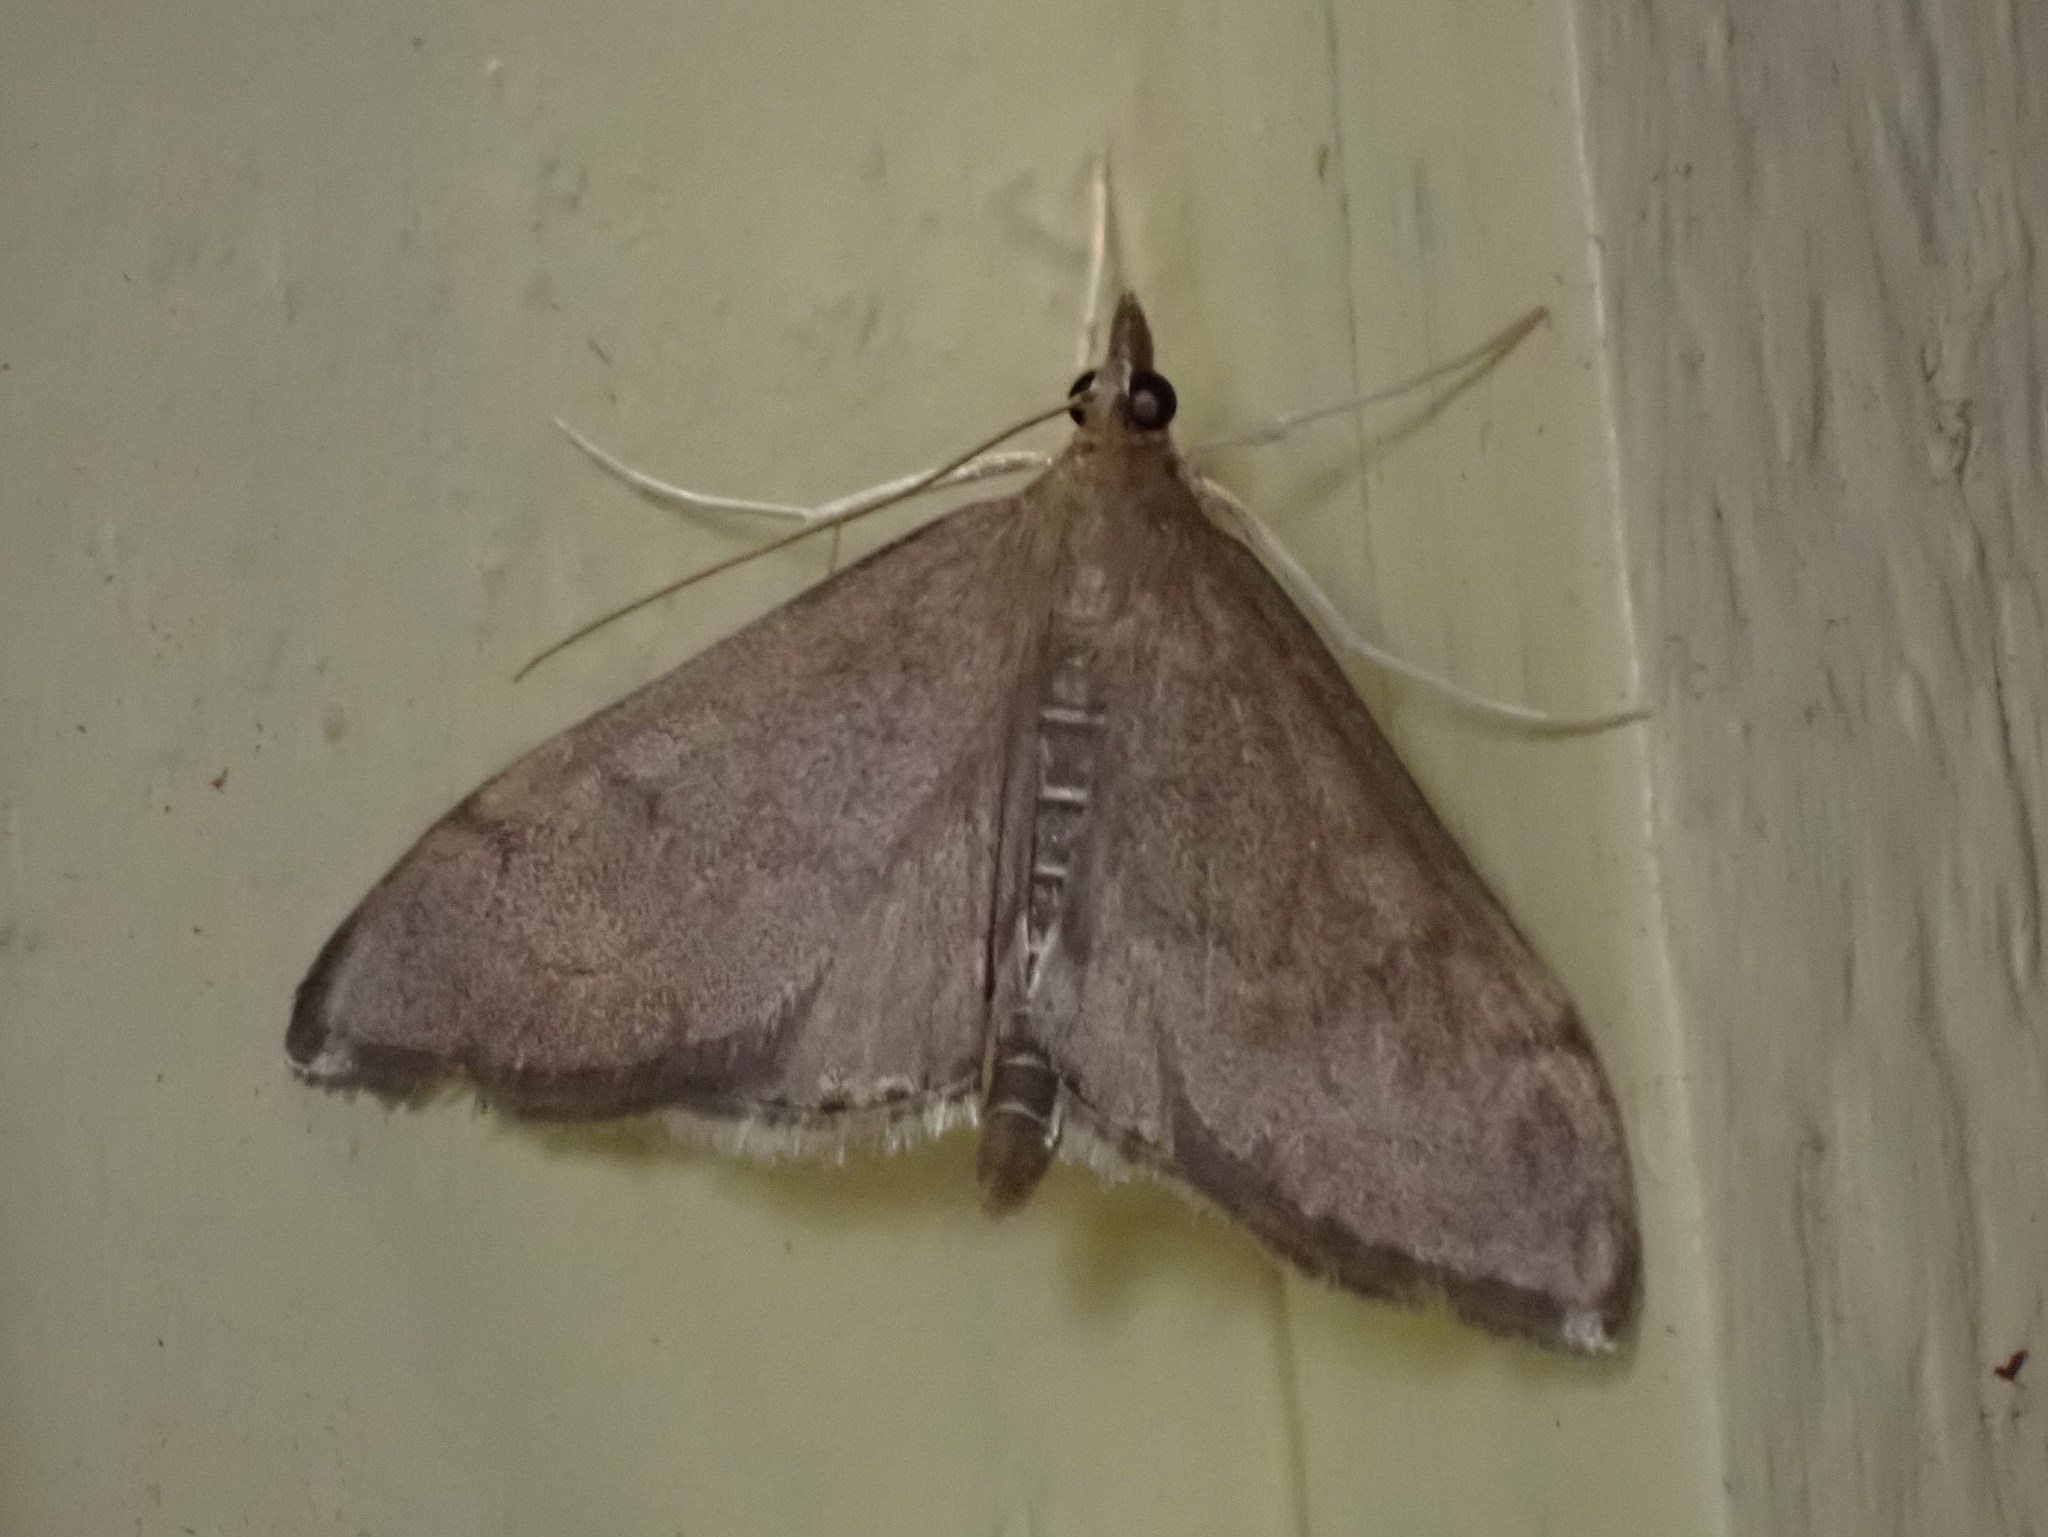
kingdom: Animalia
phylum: Arthropoda
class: Insecta
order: Lepidoptera
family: Crambidae
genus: Anania
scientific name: Anania mysippusalis
